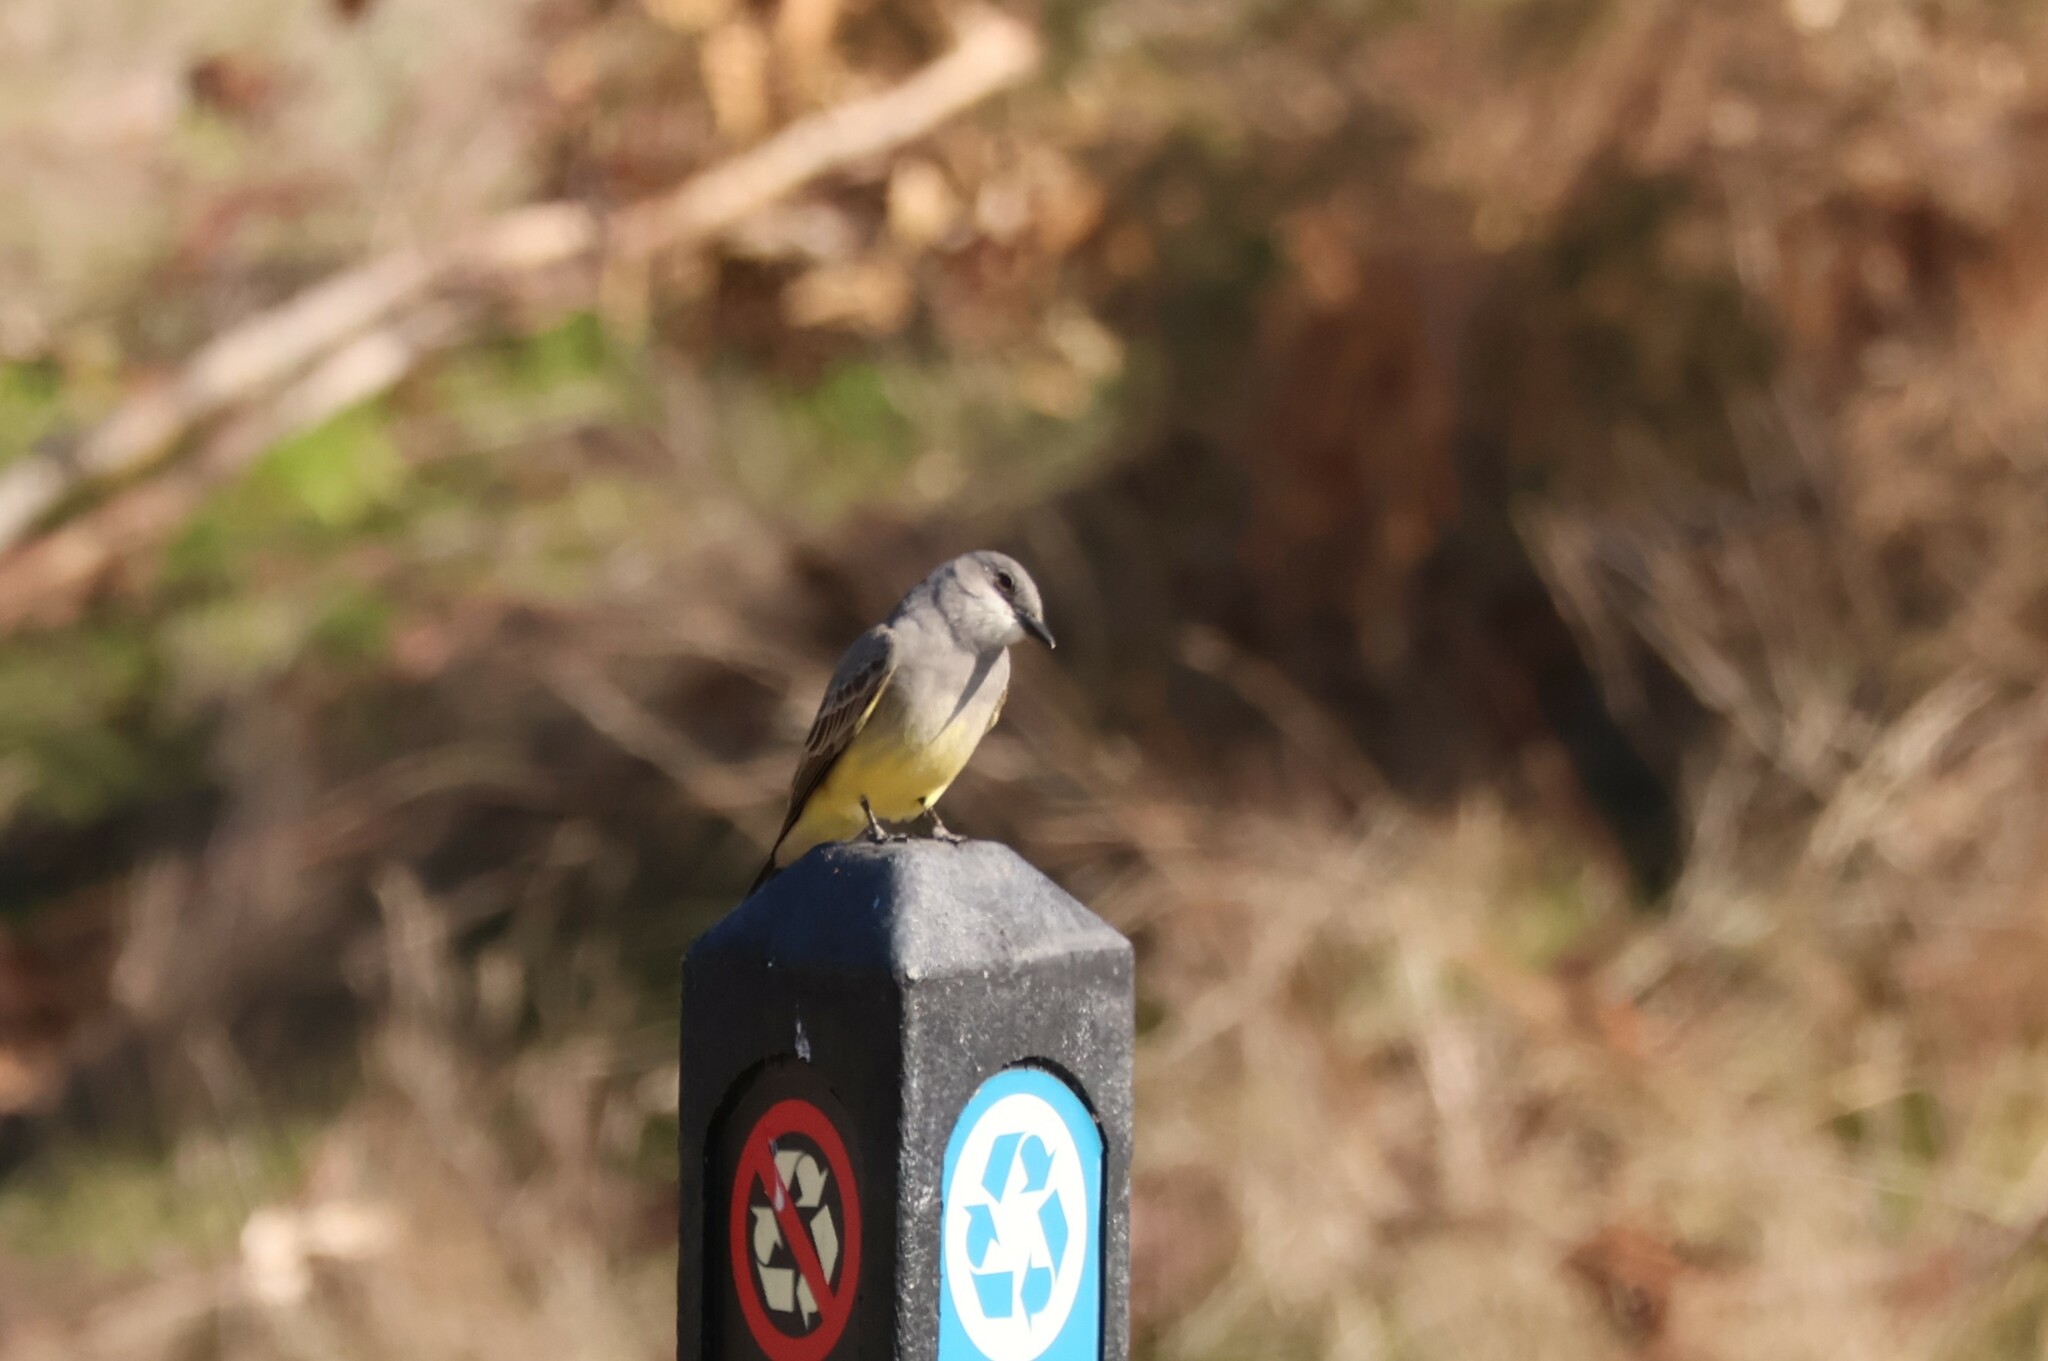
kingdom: Animalia
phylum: Chordata
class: Aves
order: Passeriformes
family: Tyrannidae
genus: Tyrannus
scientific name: Tyrannus vociferans
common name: Cassin's kingbird
